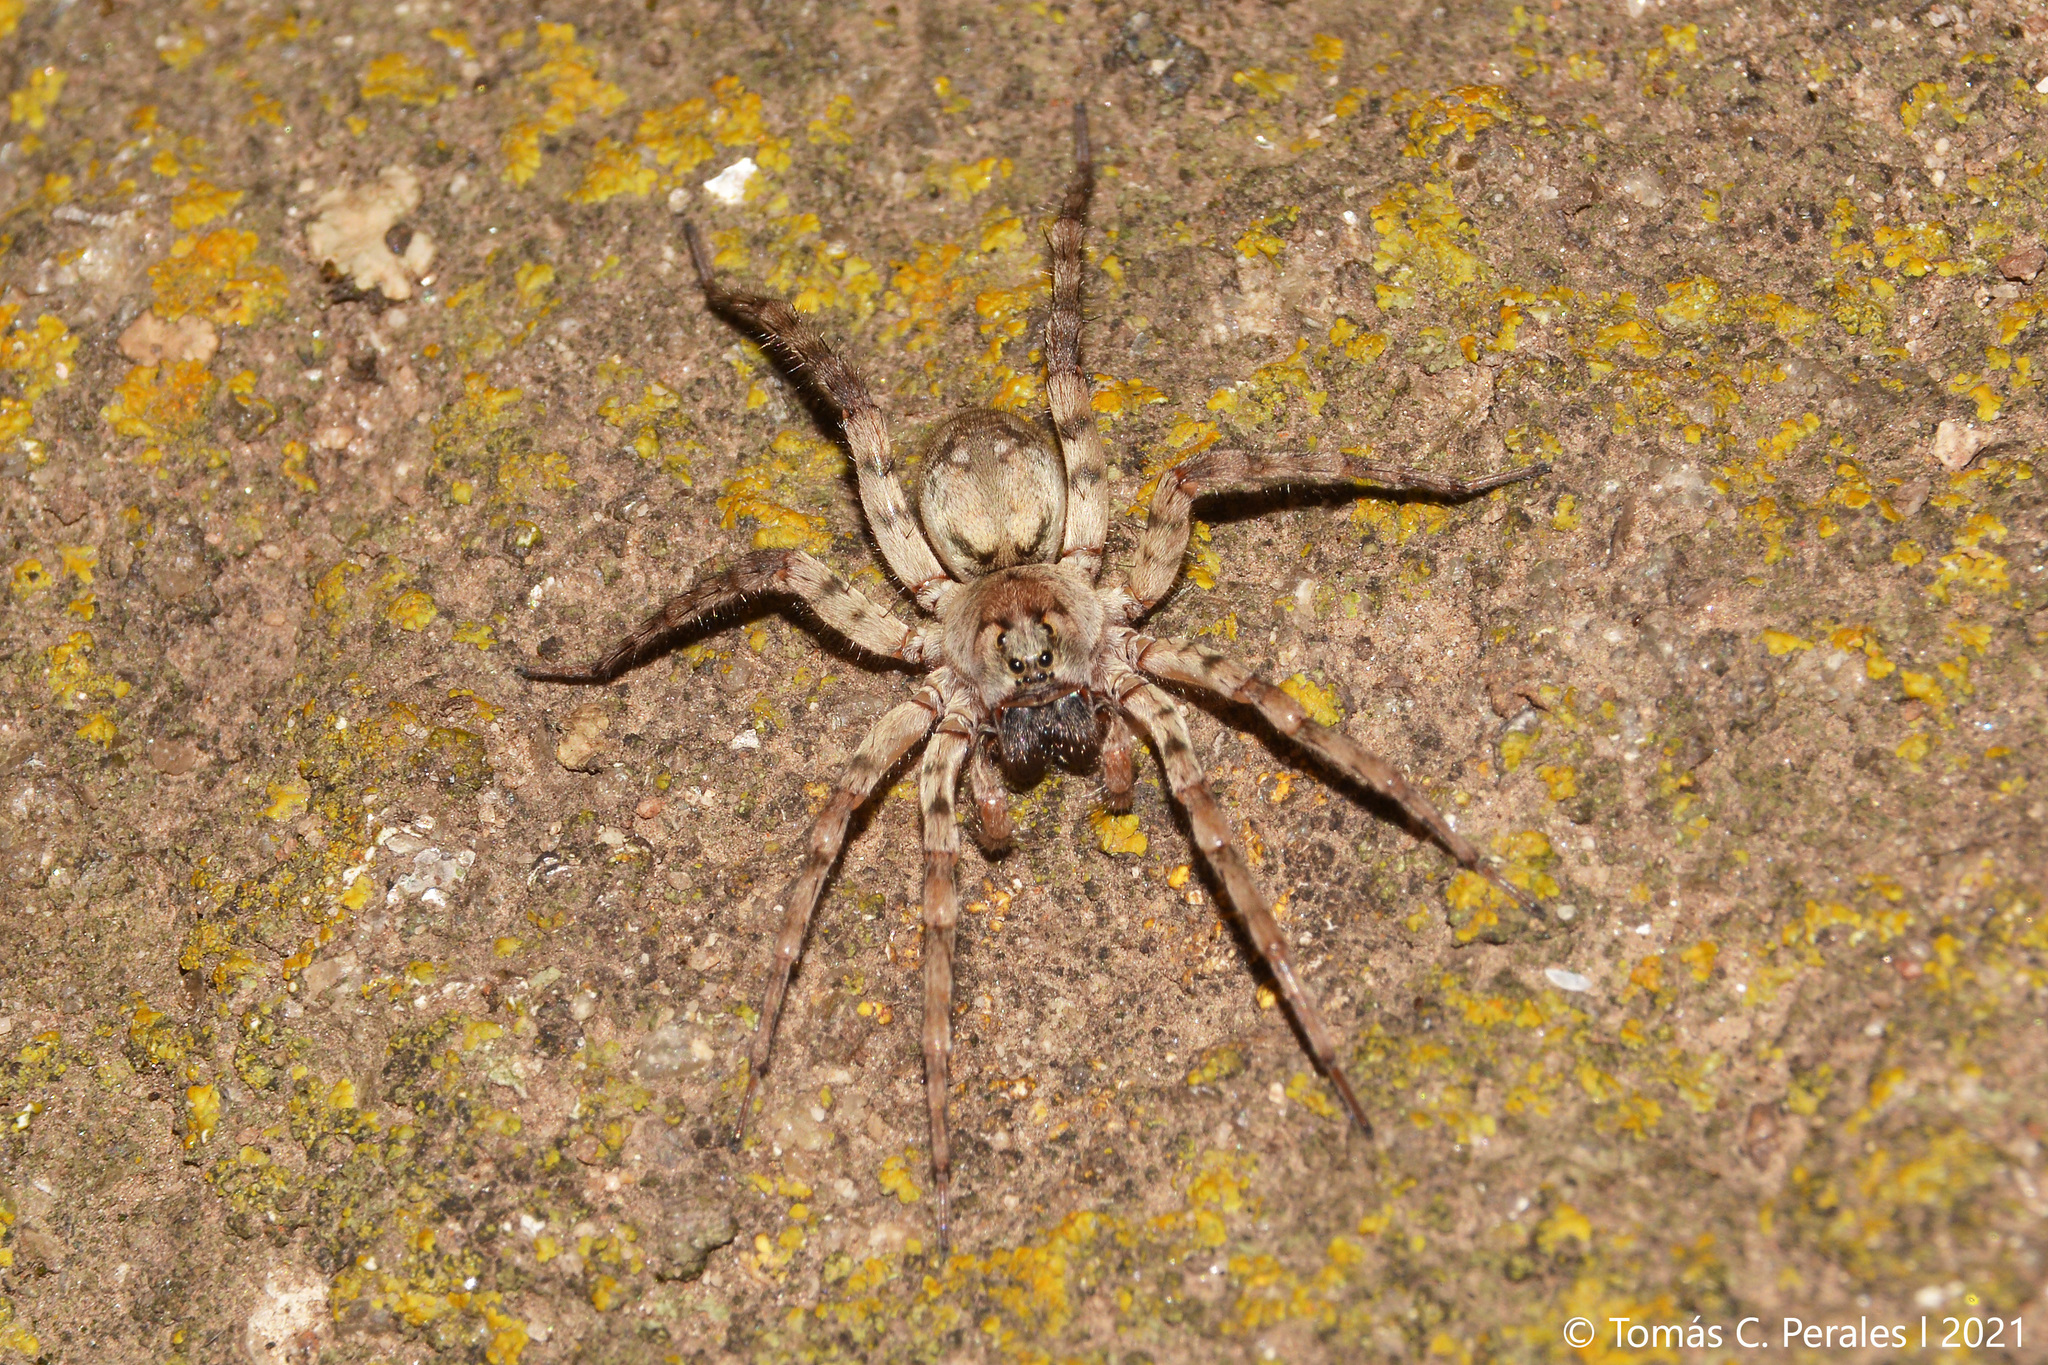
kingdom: Animalia
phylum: Arthropoda
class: Arachnida
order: Araneae
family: Lycosidae
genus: Allocosa
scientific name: Allocosa senex
